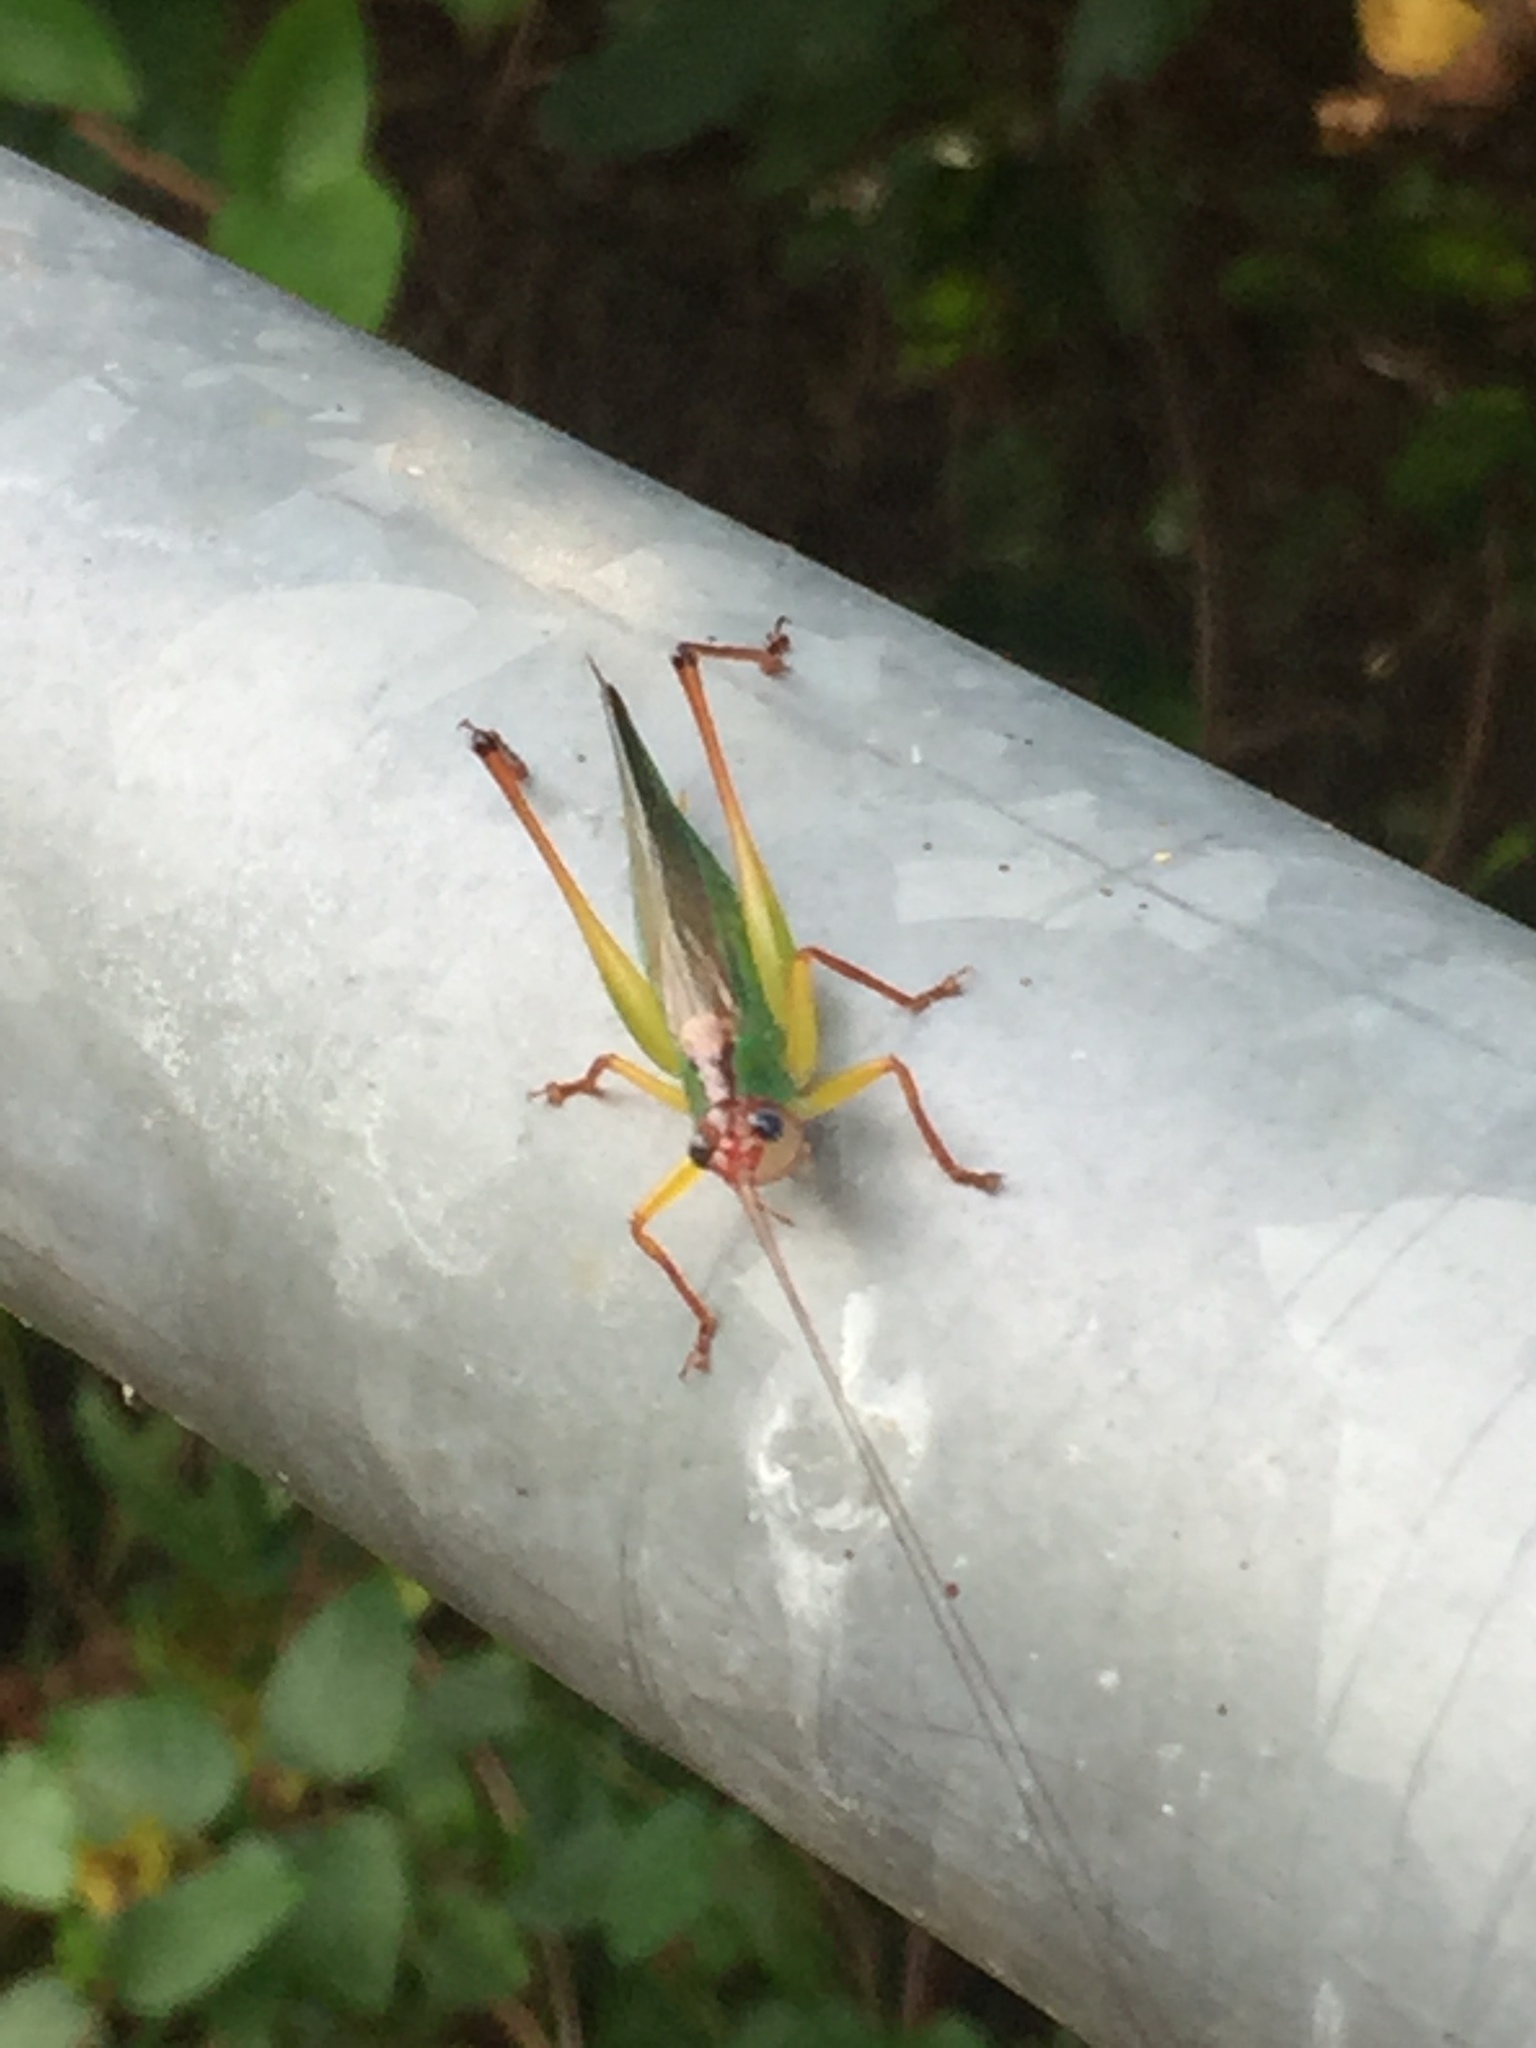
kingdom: Animalia
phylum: Arthropoda
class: Insecta
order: Orthoptera
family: Tettigoniidae
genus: Orchelimum
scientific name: Orchelimum pulchellum
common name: Handsome meadow katydid
